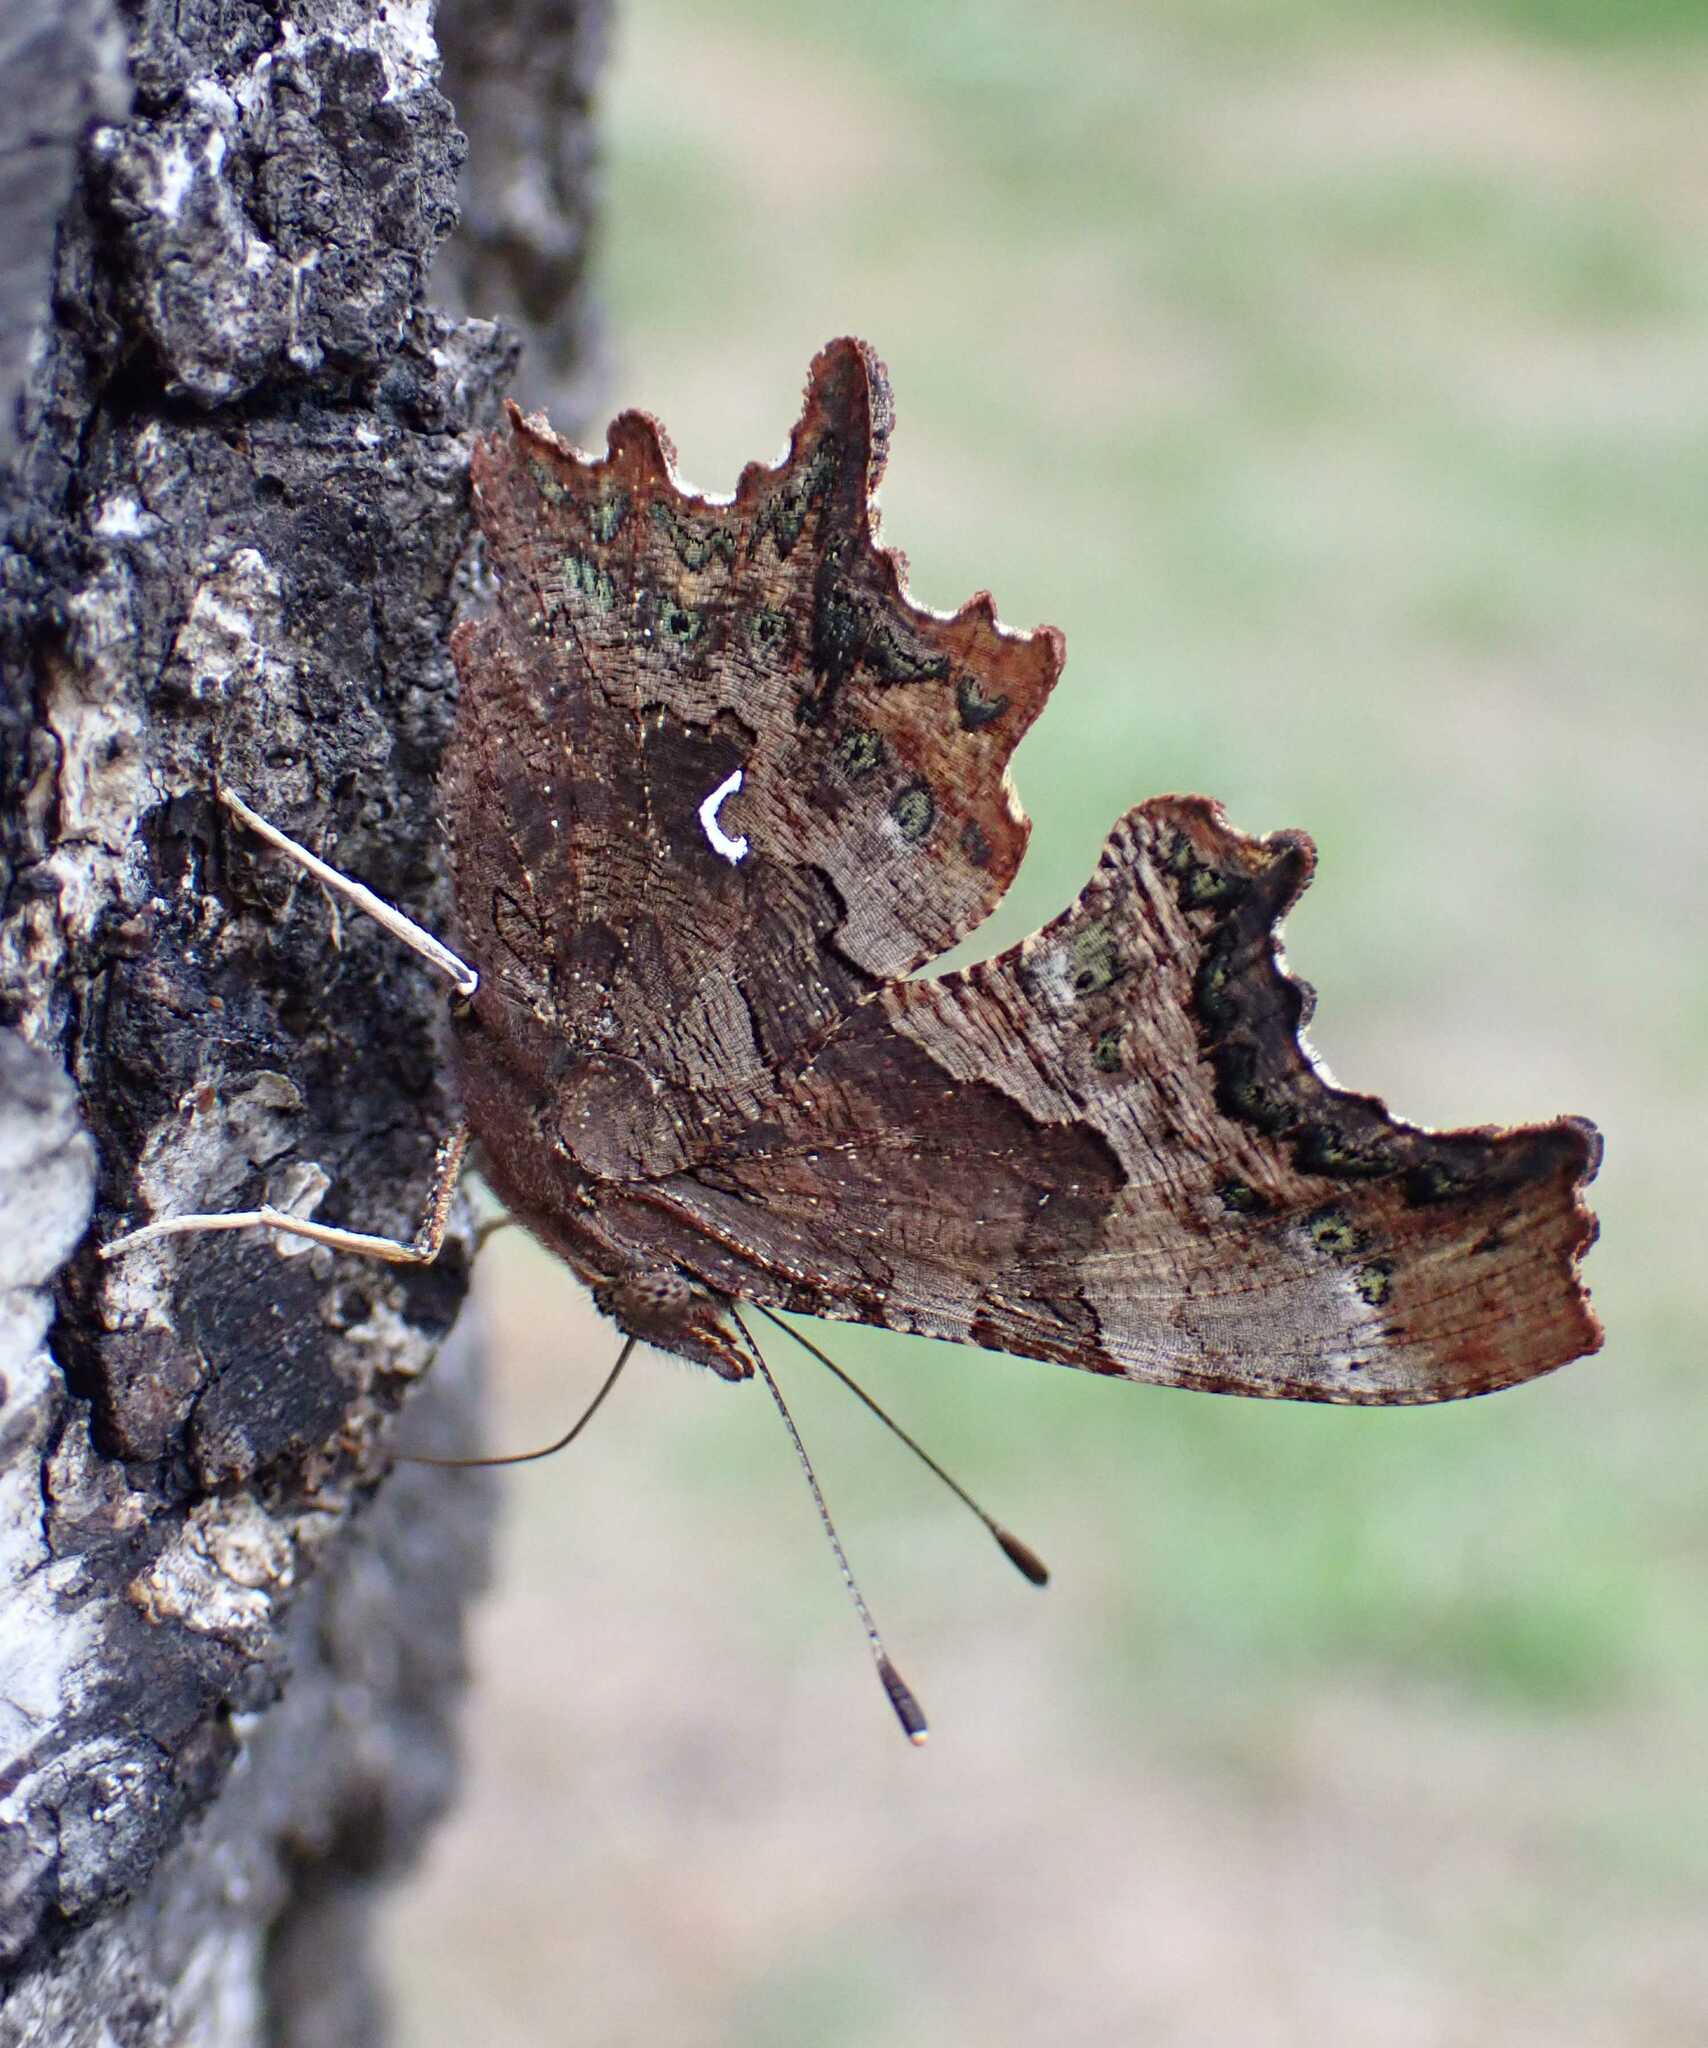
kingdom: Animalia
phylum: Arthropoda
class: Insecta
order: Lepidoptera
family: Nymphalidae
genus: Polygonia
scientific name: Polygonia c-album
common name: Comma
